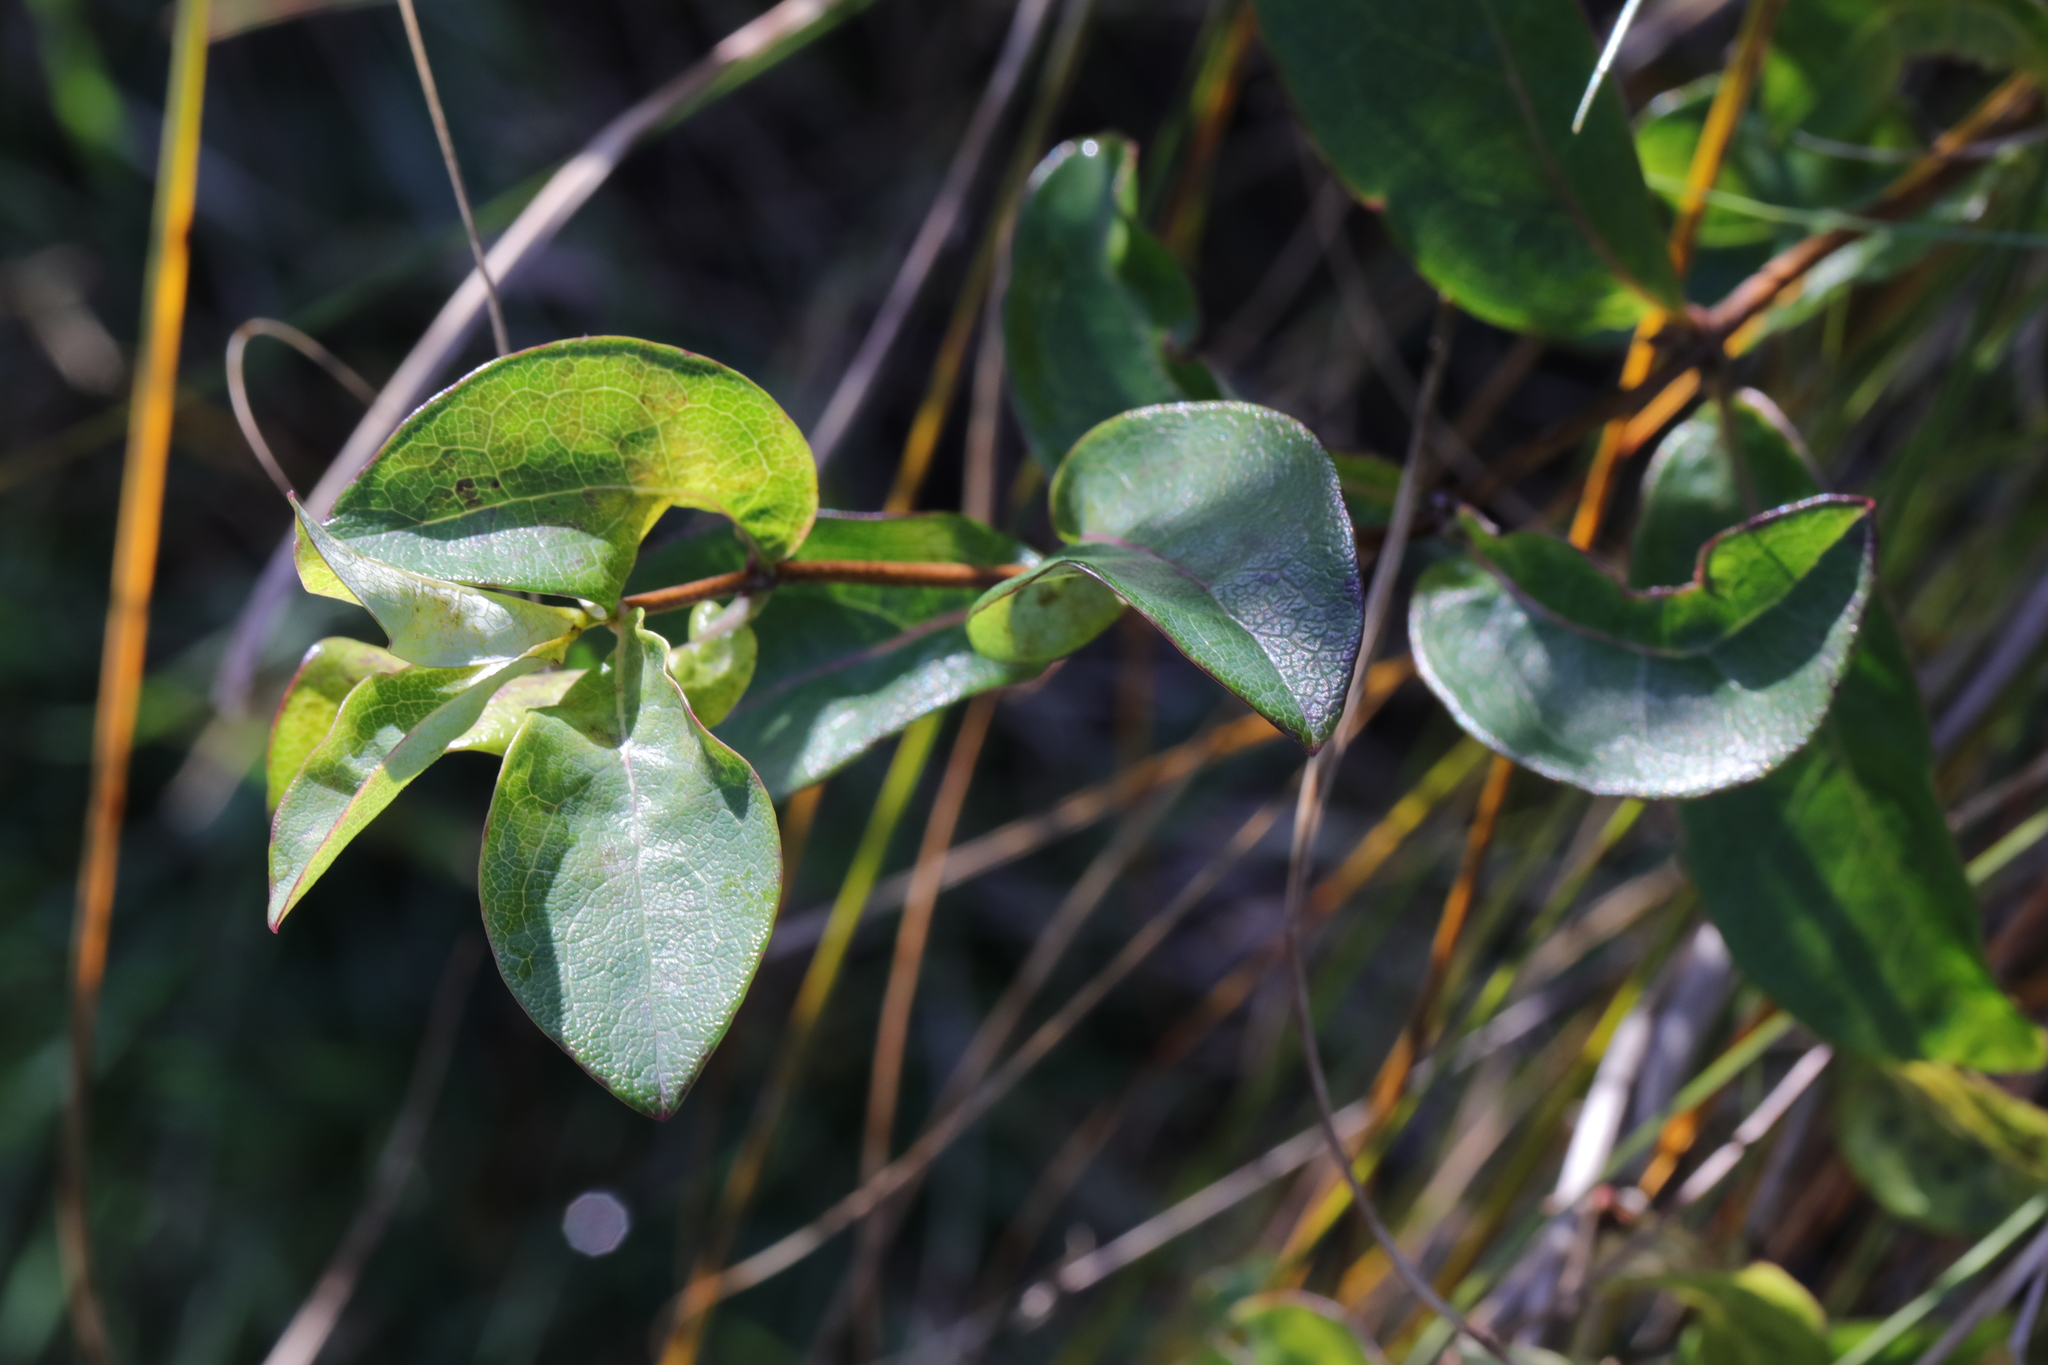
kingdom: Plantae
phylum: Tracheophyta
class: Magnoliopsida
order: Dipsacales
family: Caprifoliaceae
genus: Lonicera
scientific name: Lonicera periclymenum
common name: European honeysuckle
